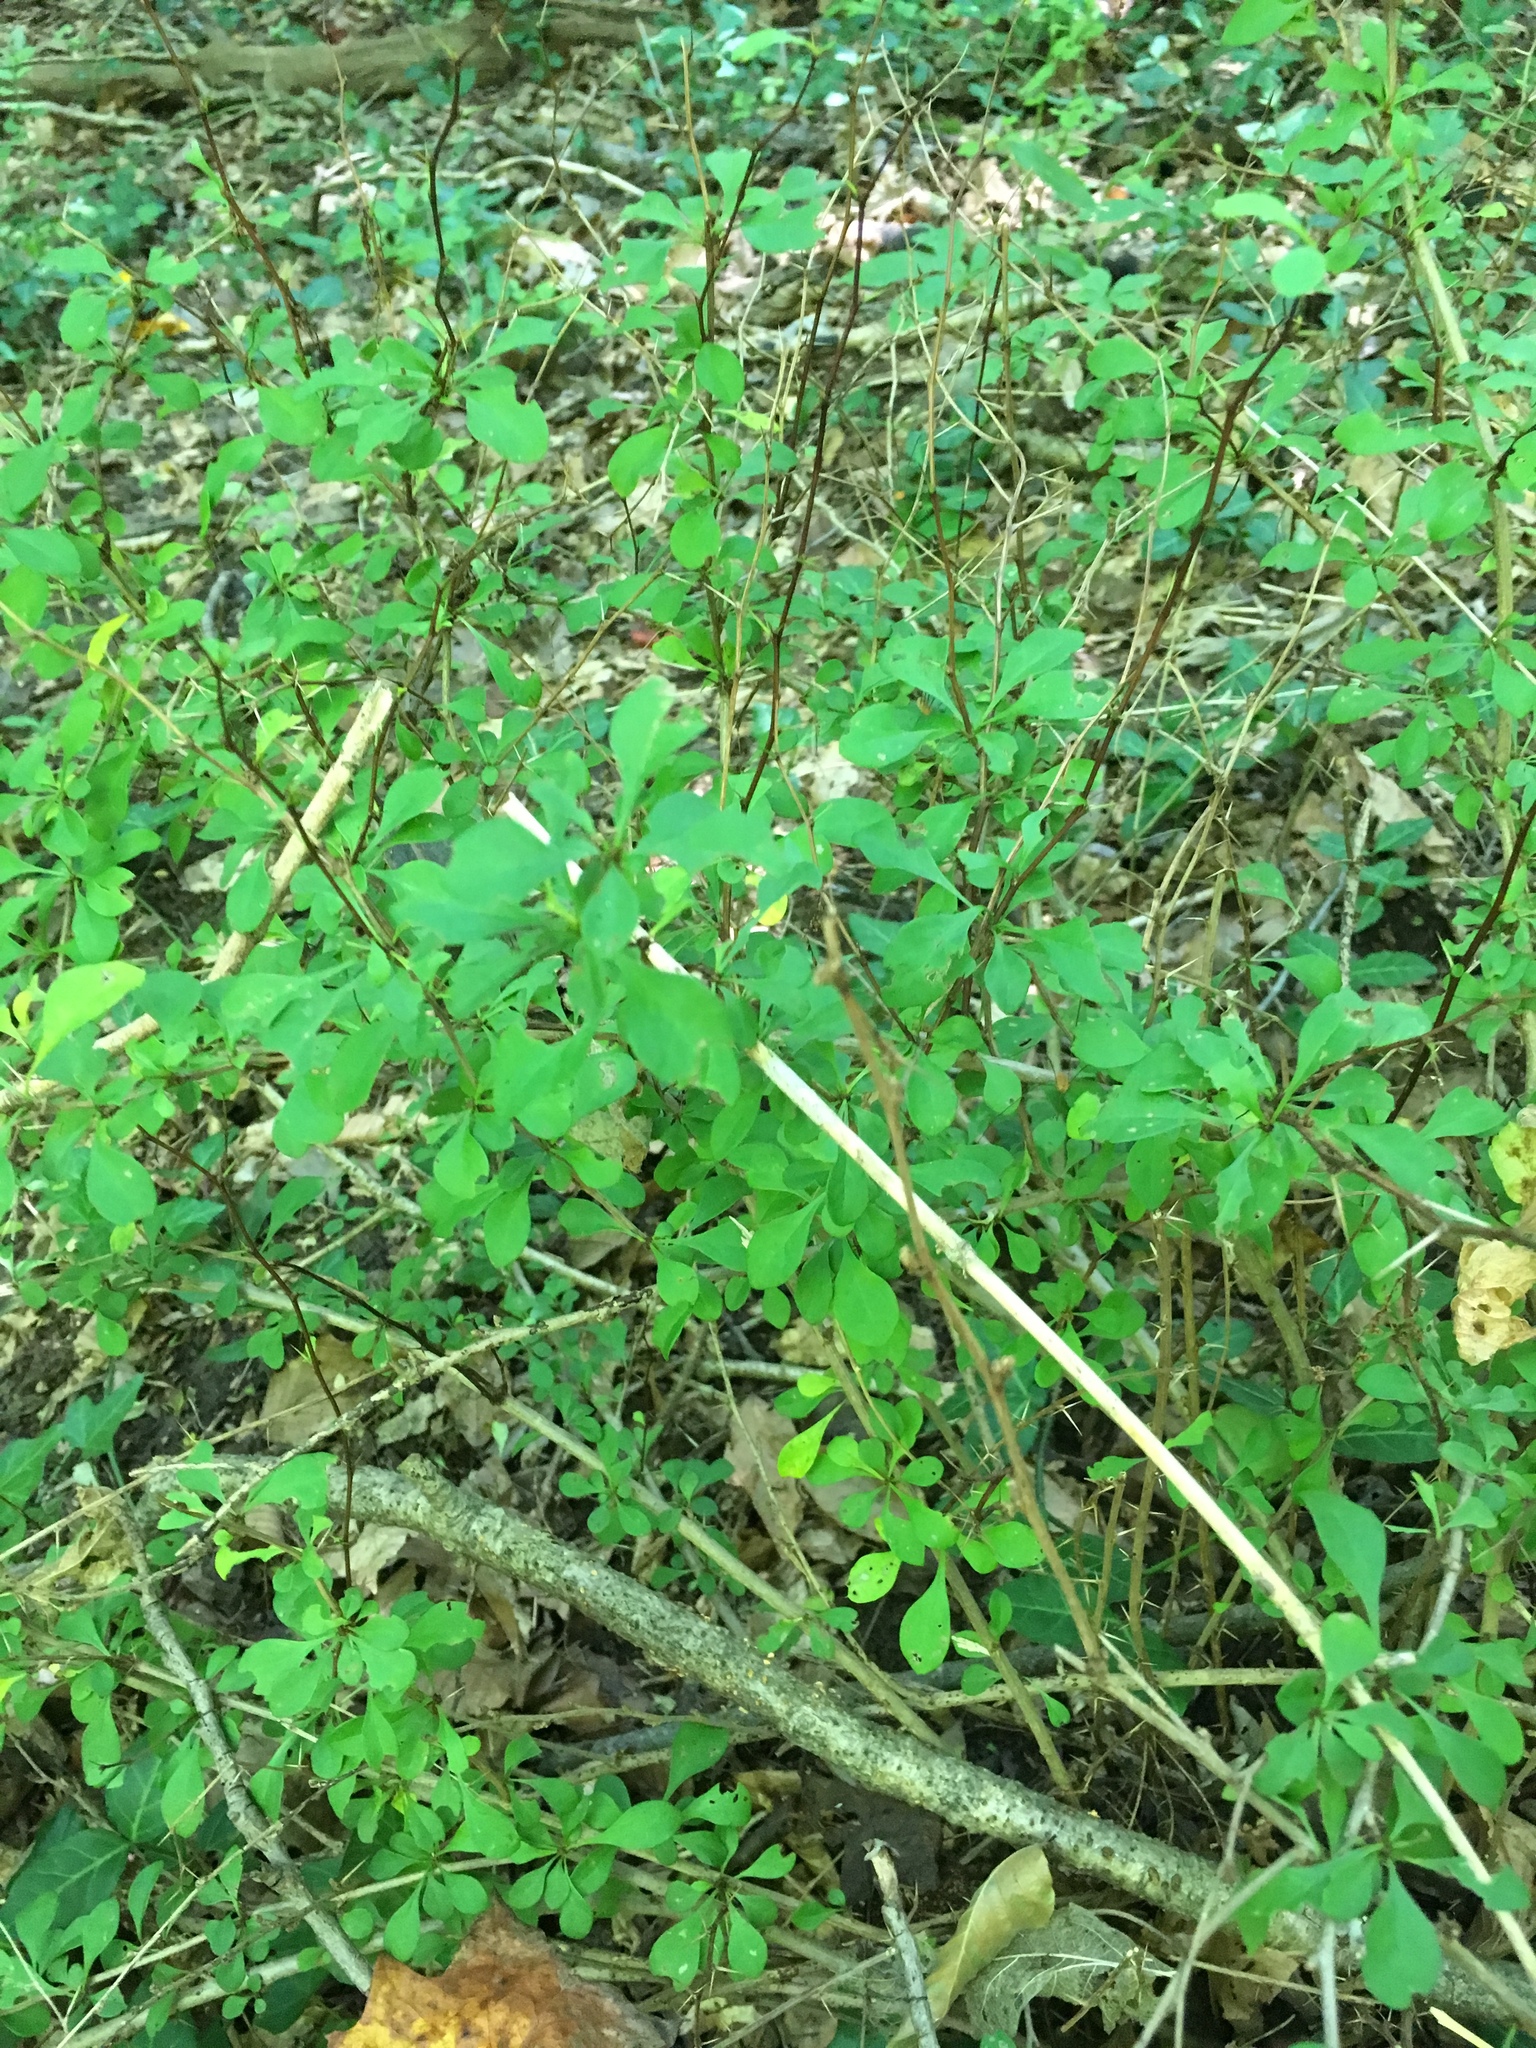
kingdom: Plantae
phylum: Tracheophyta
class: Magnoliopsida
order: Ranunculales
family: Berberidaceae
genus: Berberis
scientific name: Berberis thunbergii
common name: Japanese barberry
